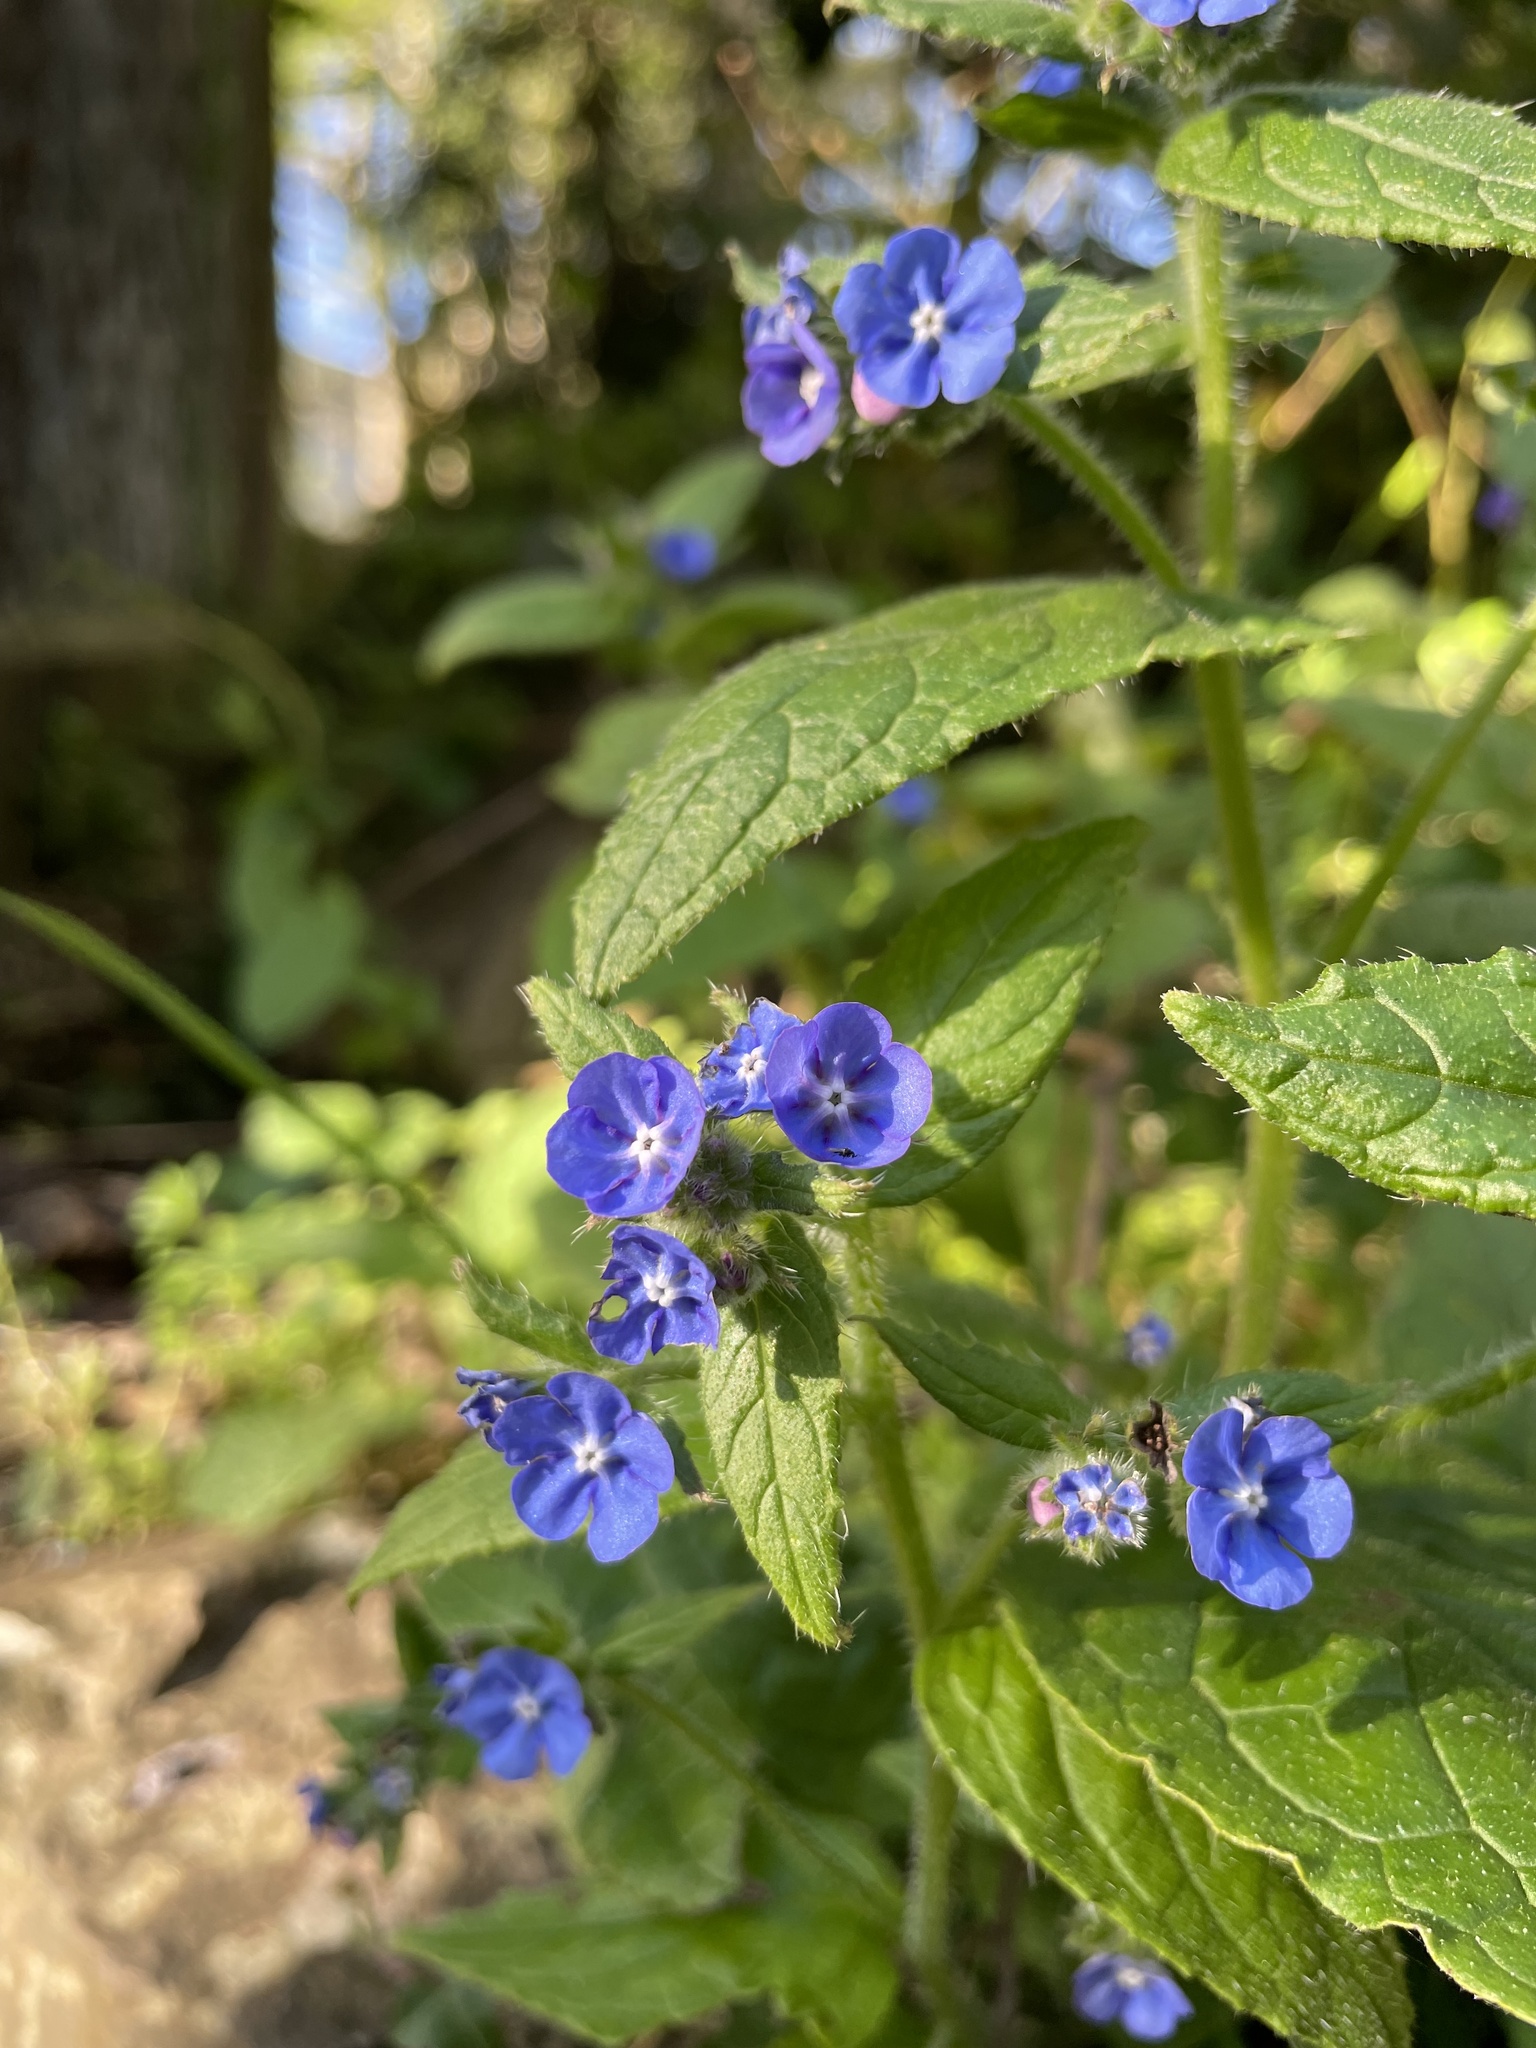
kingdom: Plantae
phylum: Tracheophyta
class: Magnoliopsida
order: Boraginales
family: Boraginaceae
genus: Pentaglottis
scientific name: Pentaglottis sempervirens
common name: Green alkanet
